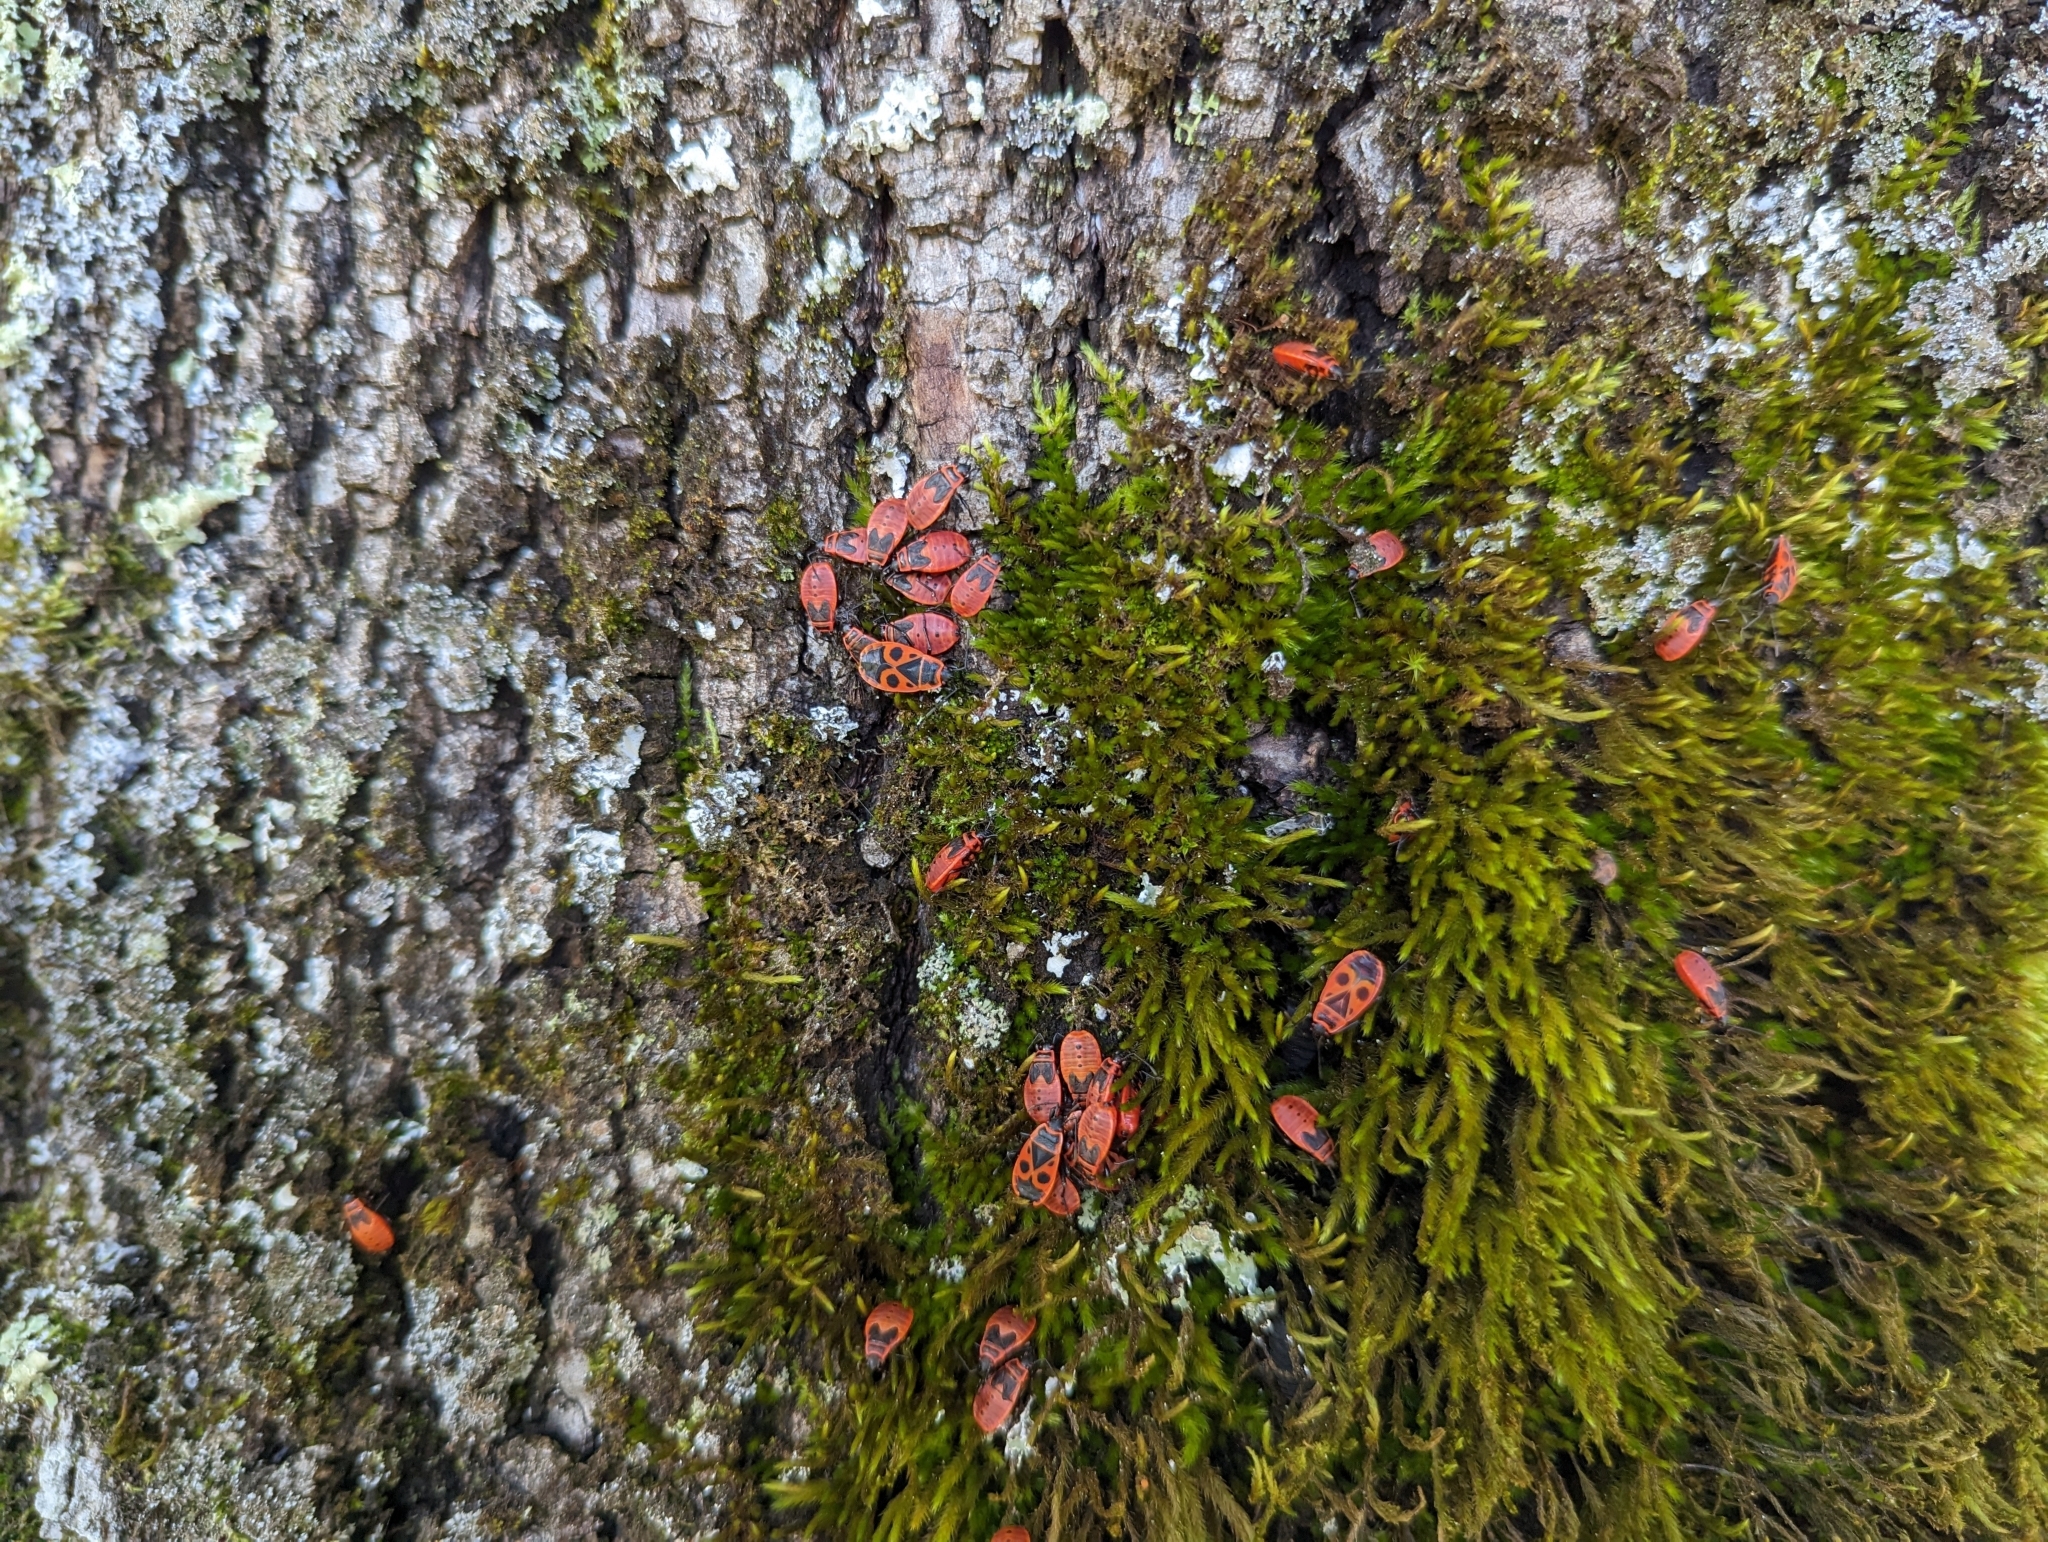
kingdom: Animalia
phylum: Arthropoda
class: Insecta
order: Hemiptera
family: Pyrrhocoridae
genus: Pyrrhocoris
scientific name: Pyrrhocoris apterus
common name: Firebug
